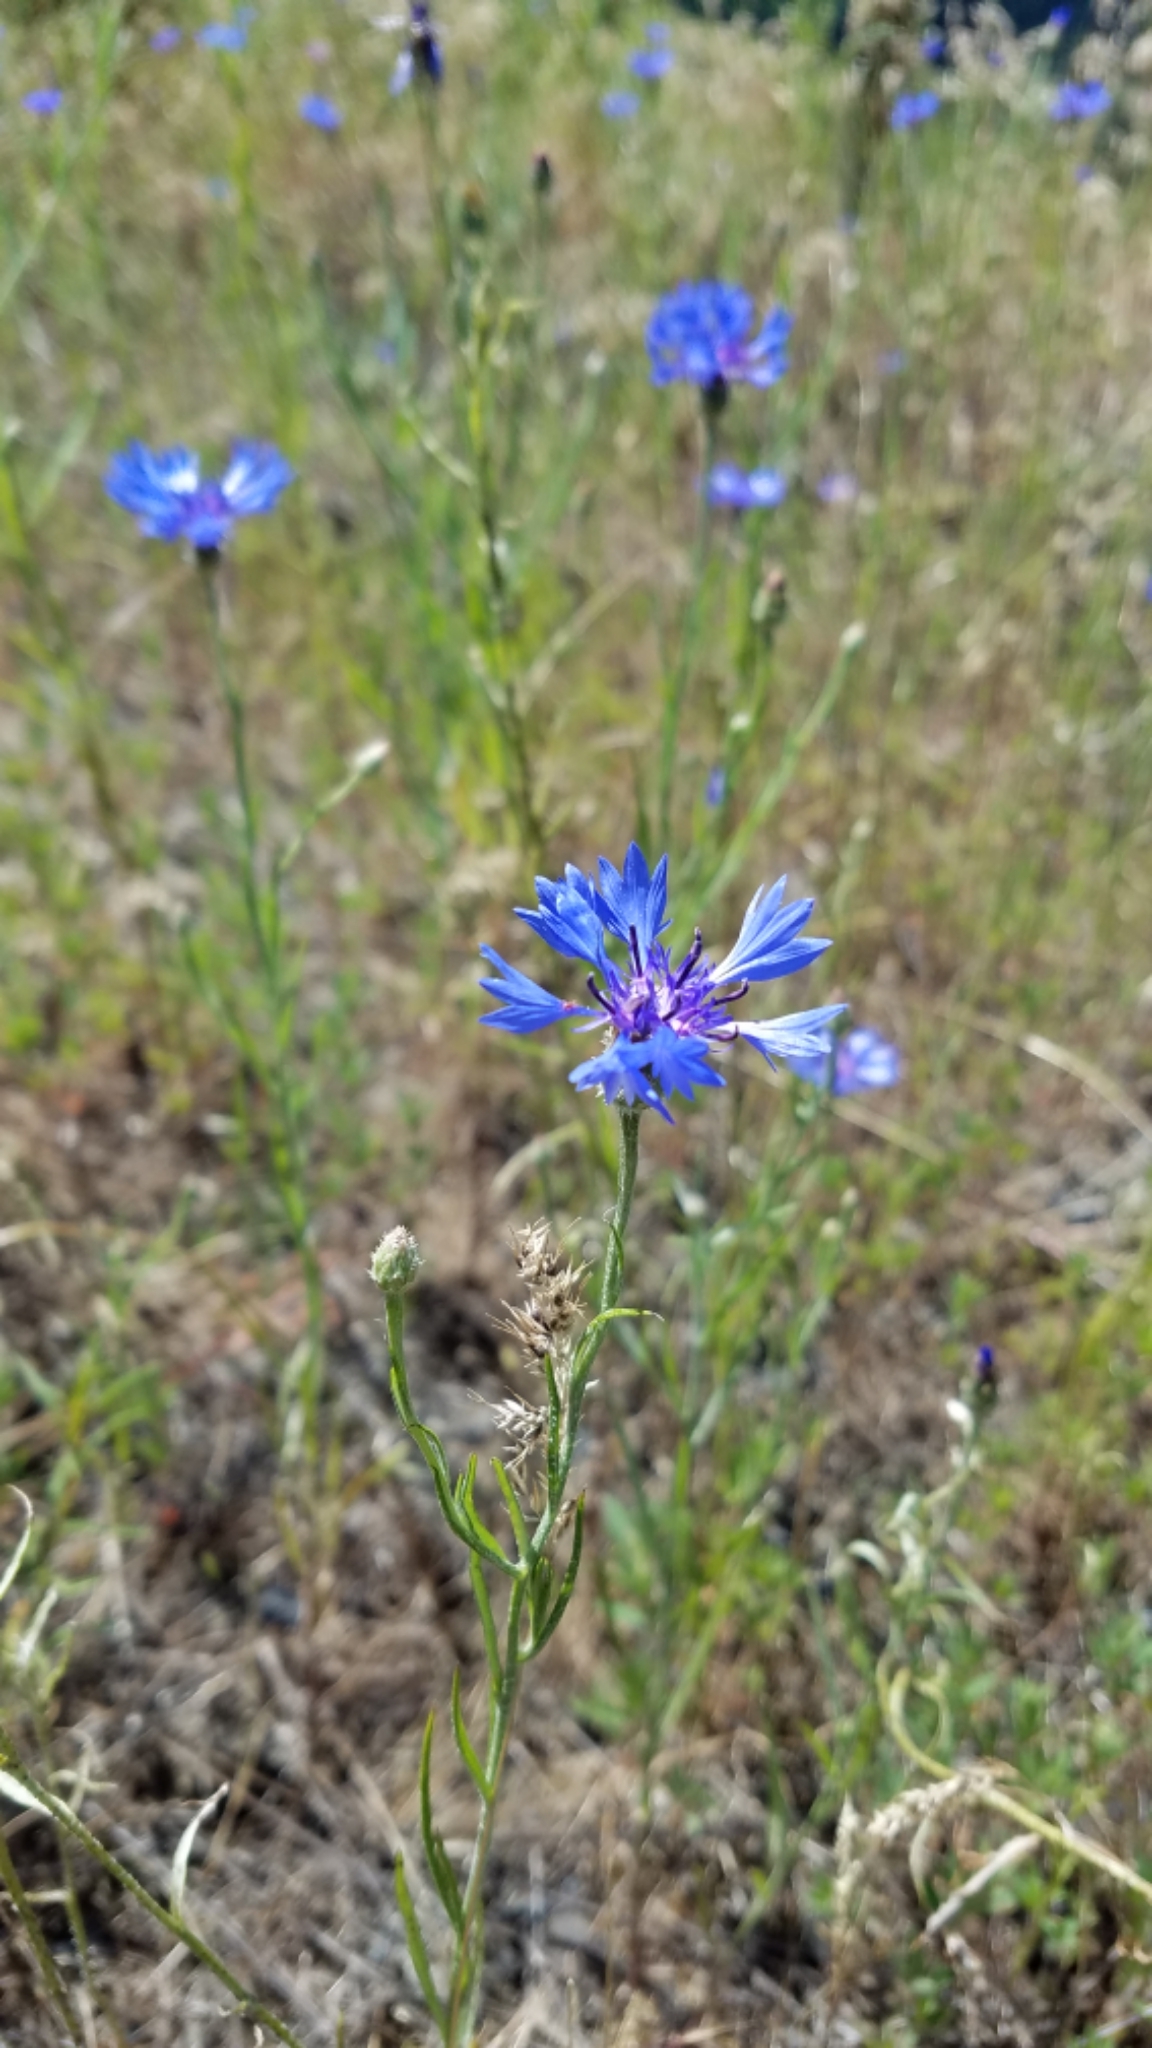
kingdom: Plantae
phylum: Tracheophyta
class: Magnoliopsida
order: Asterales
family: Asteraceae
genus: Centaurea
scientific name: Centaurea cyanus
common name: Cornflower
